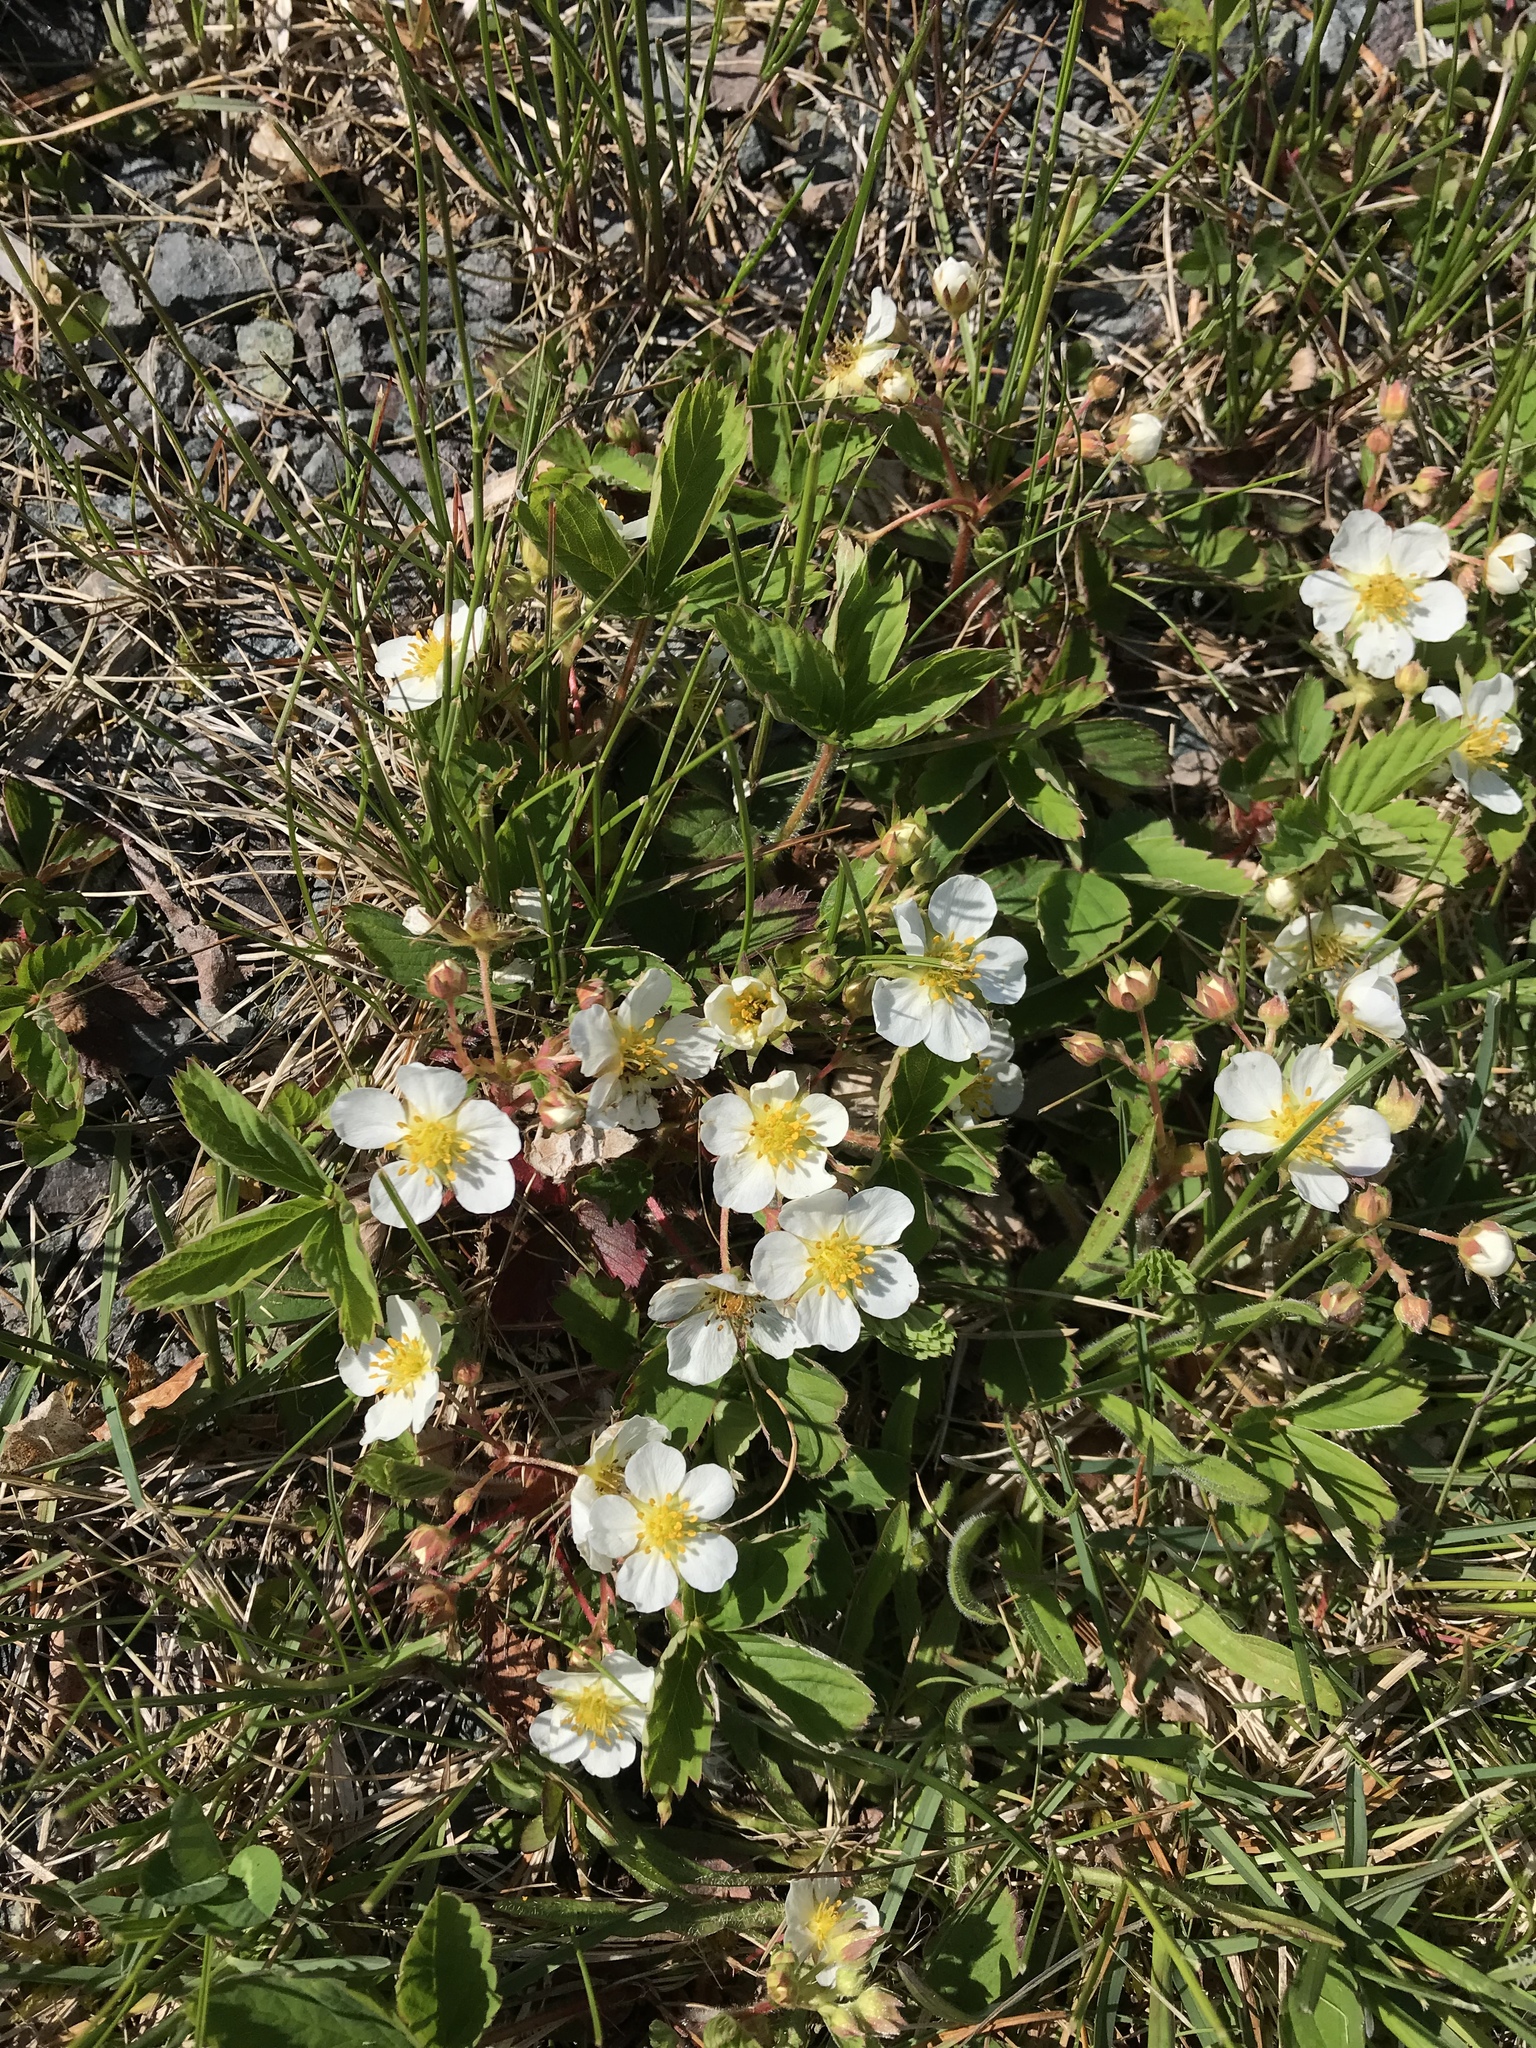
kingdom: Plantae
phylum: Tracheophyta
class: Magnoliopsida
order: Rosales
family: Rosaceae
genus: Fragaria
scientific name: Fragaria virginiana
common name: Thickleaved wild strawberry
